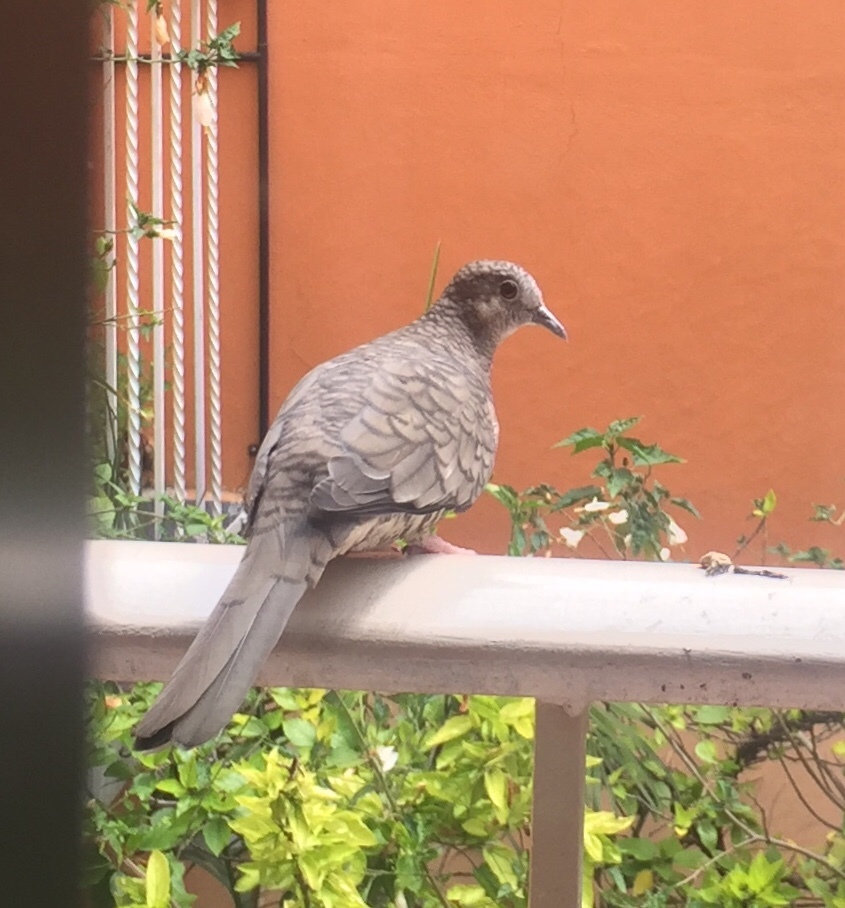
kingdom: Animalia
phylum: Chordata
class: Aves
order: Columbiformes
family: Columbidae
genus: Columbina
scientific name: Columbina inca
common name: Inca dove
